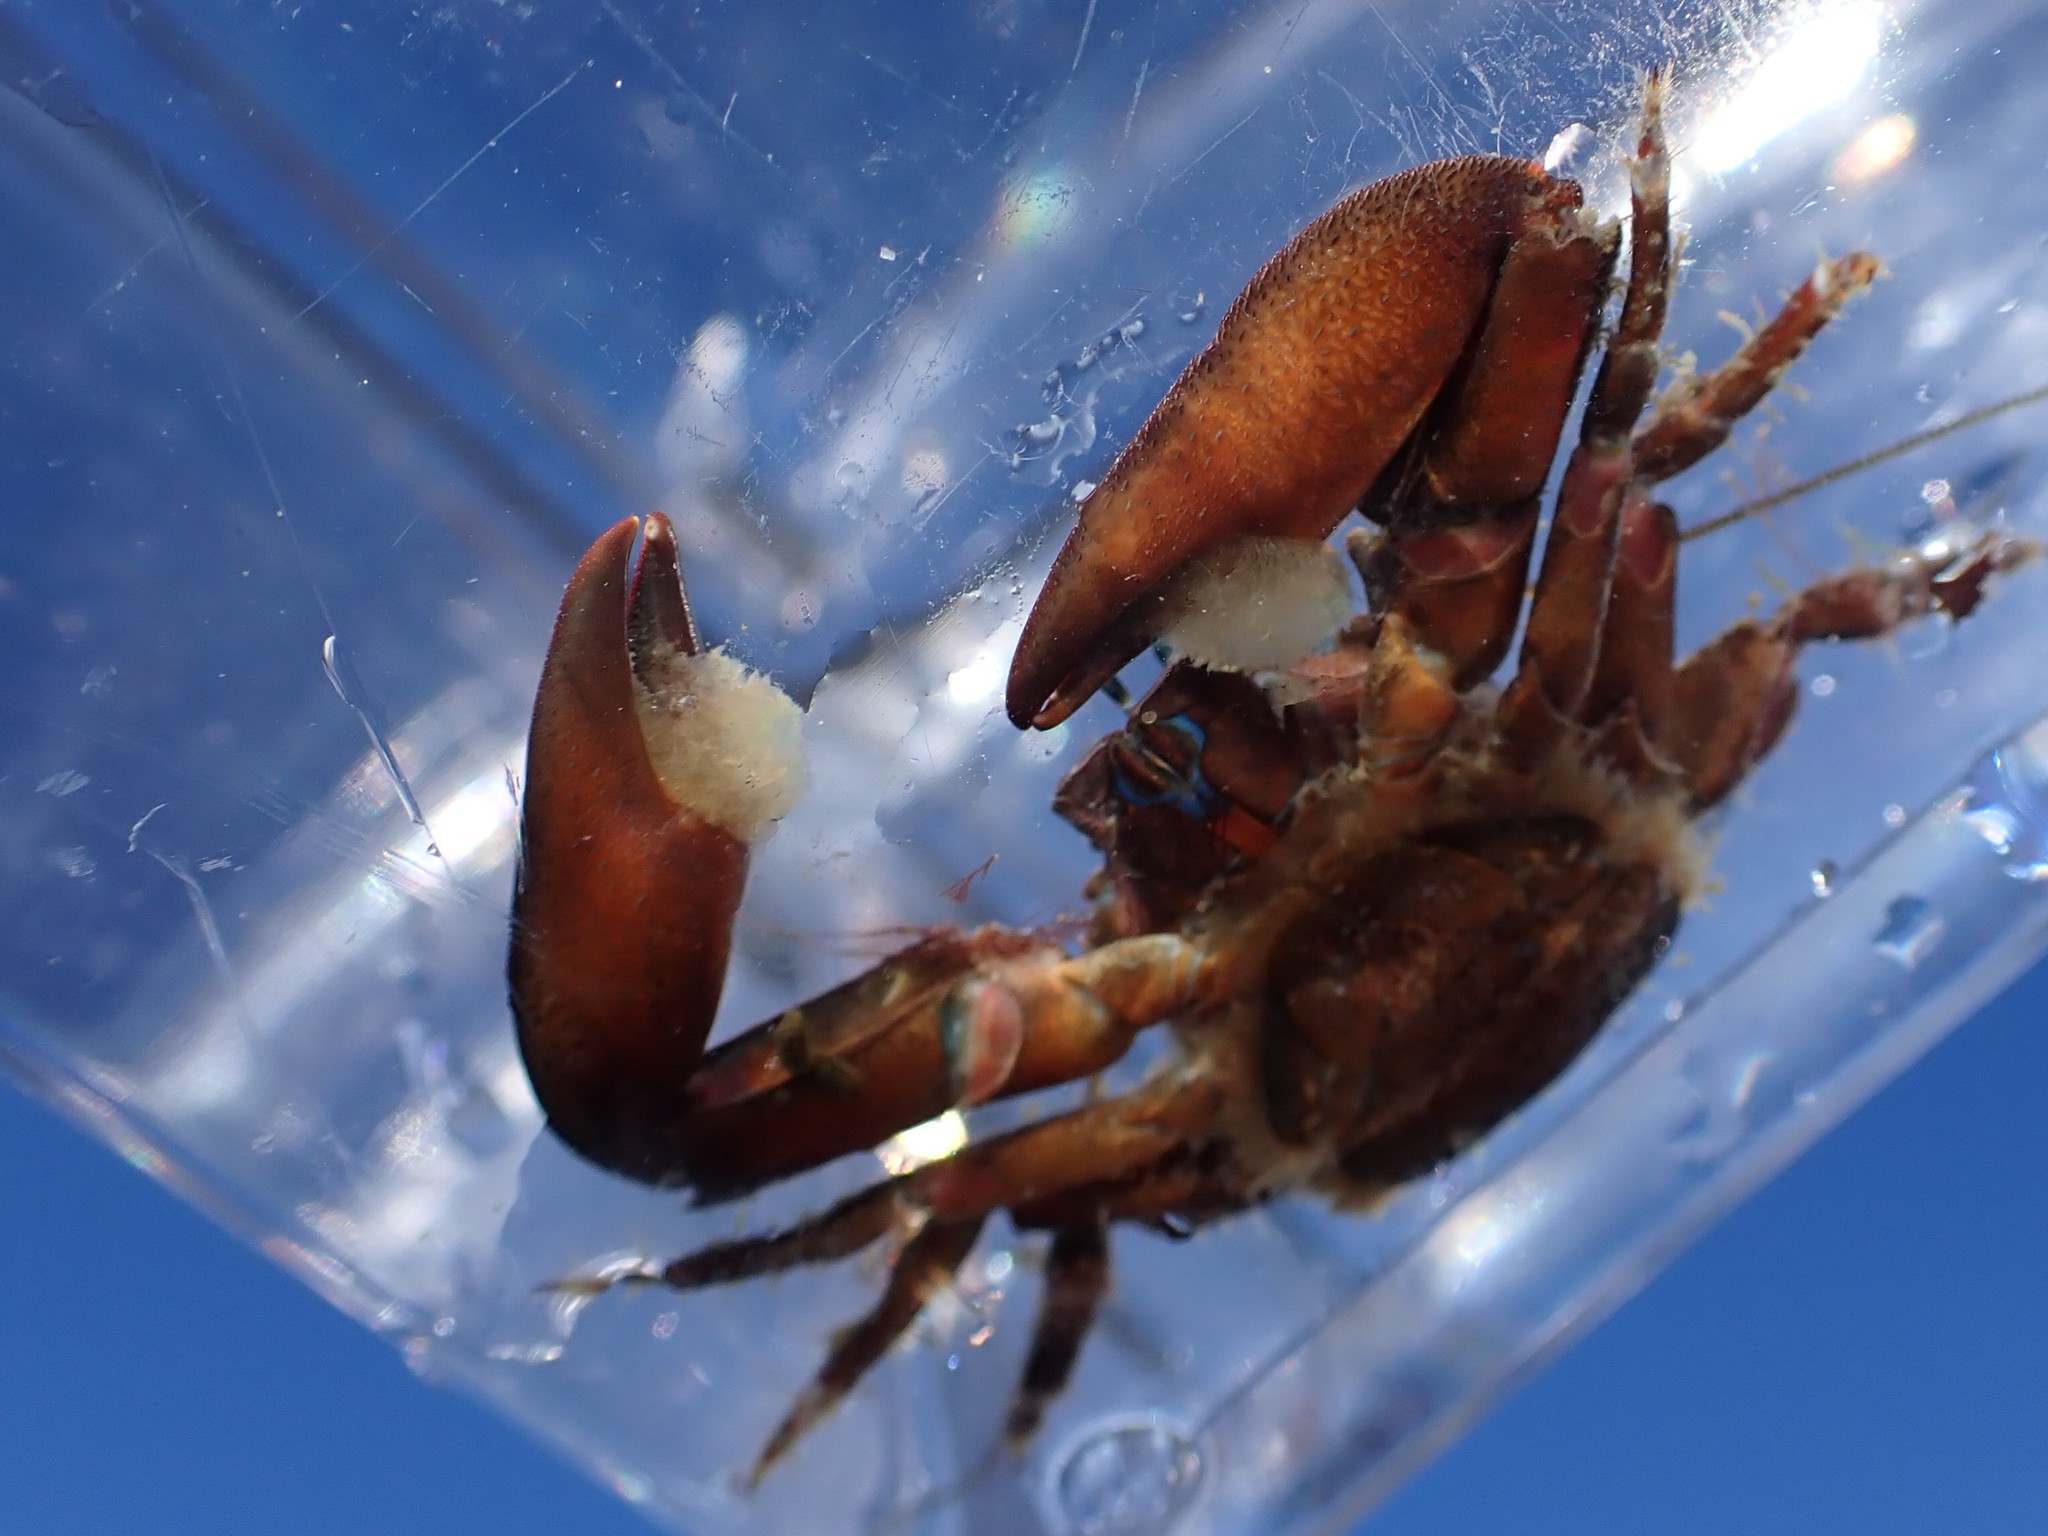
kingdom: Animalia
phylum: Arthropoda
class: Malacostraca
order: Decapoda
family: Porcellanidae
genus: Petrolisthes
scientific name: Petrolisthes eriomerus
